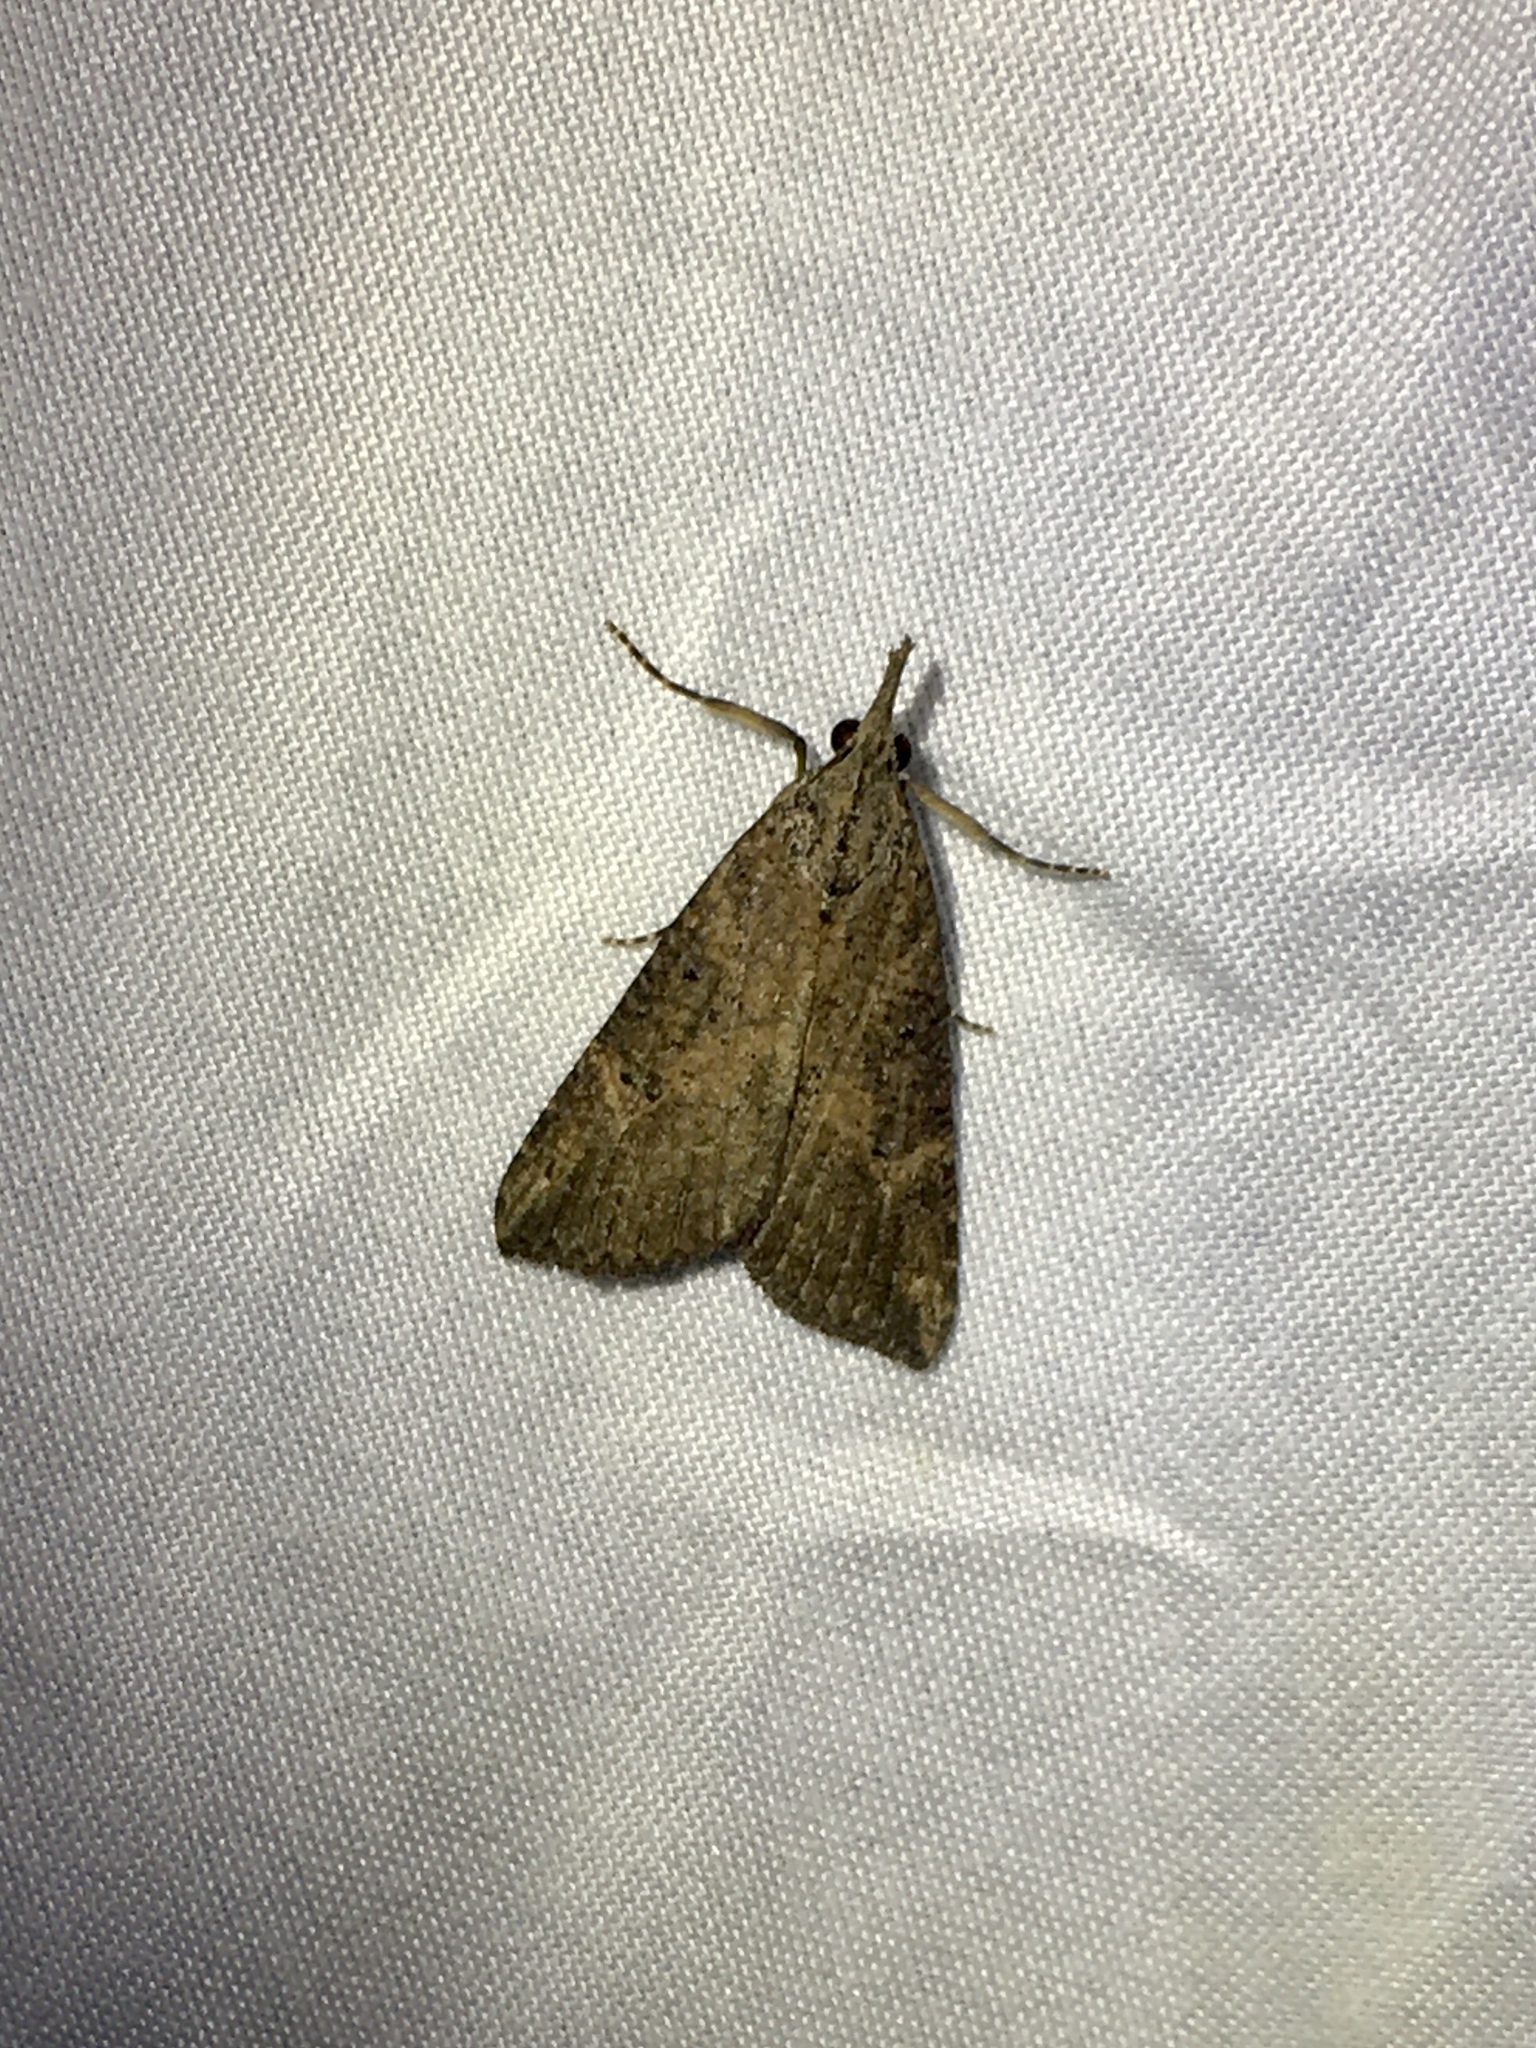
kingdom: Animalia
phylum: Arthropoda
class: Insecta
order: Lepidoptera
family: Erebidae
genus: Hypena
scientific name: Hypena humuli
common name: Hop vine snout
